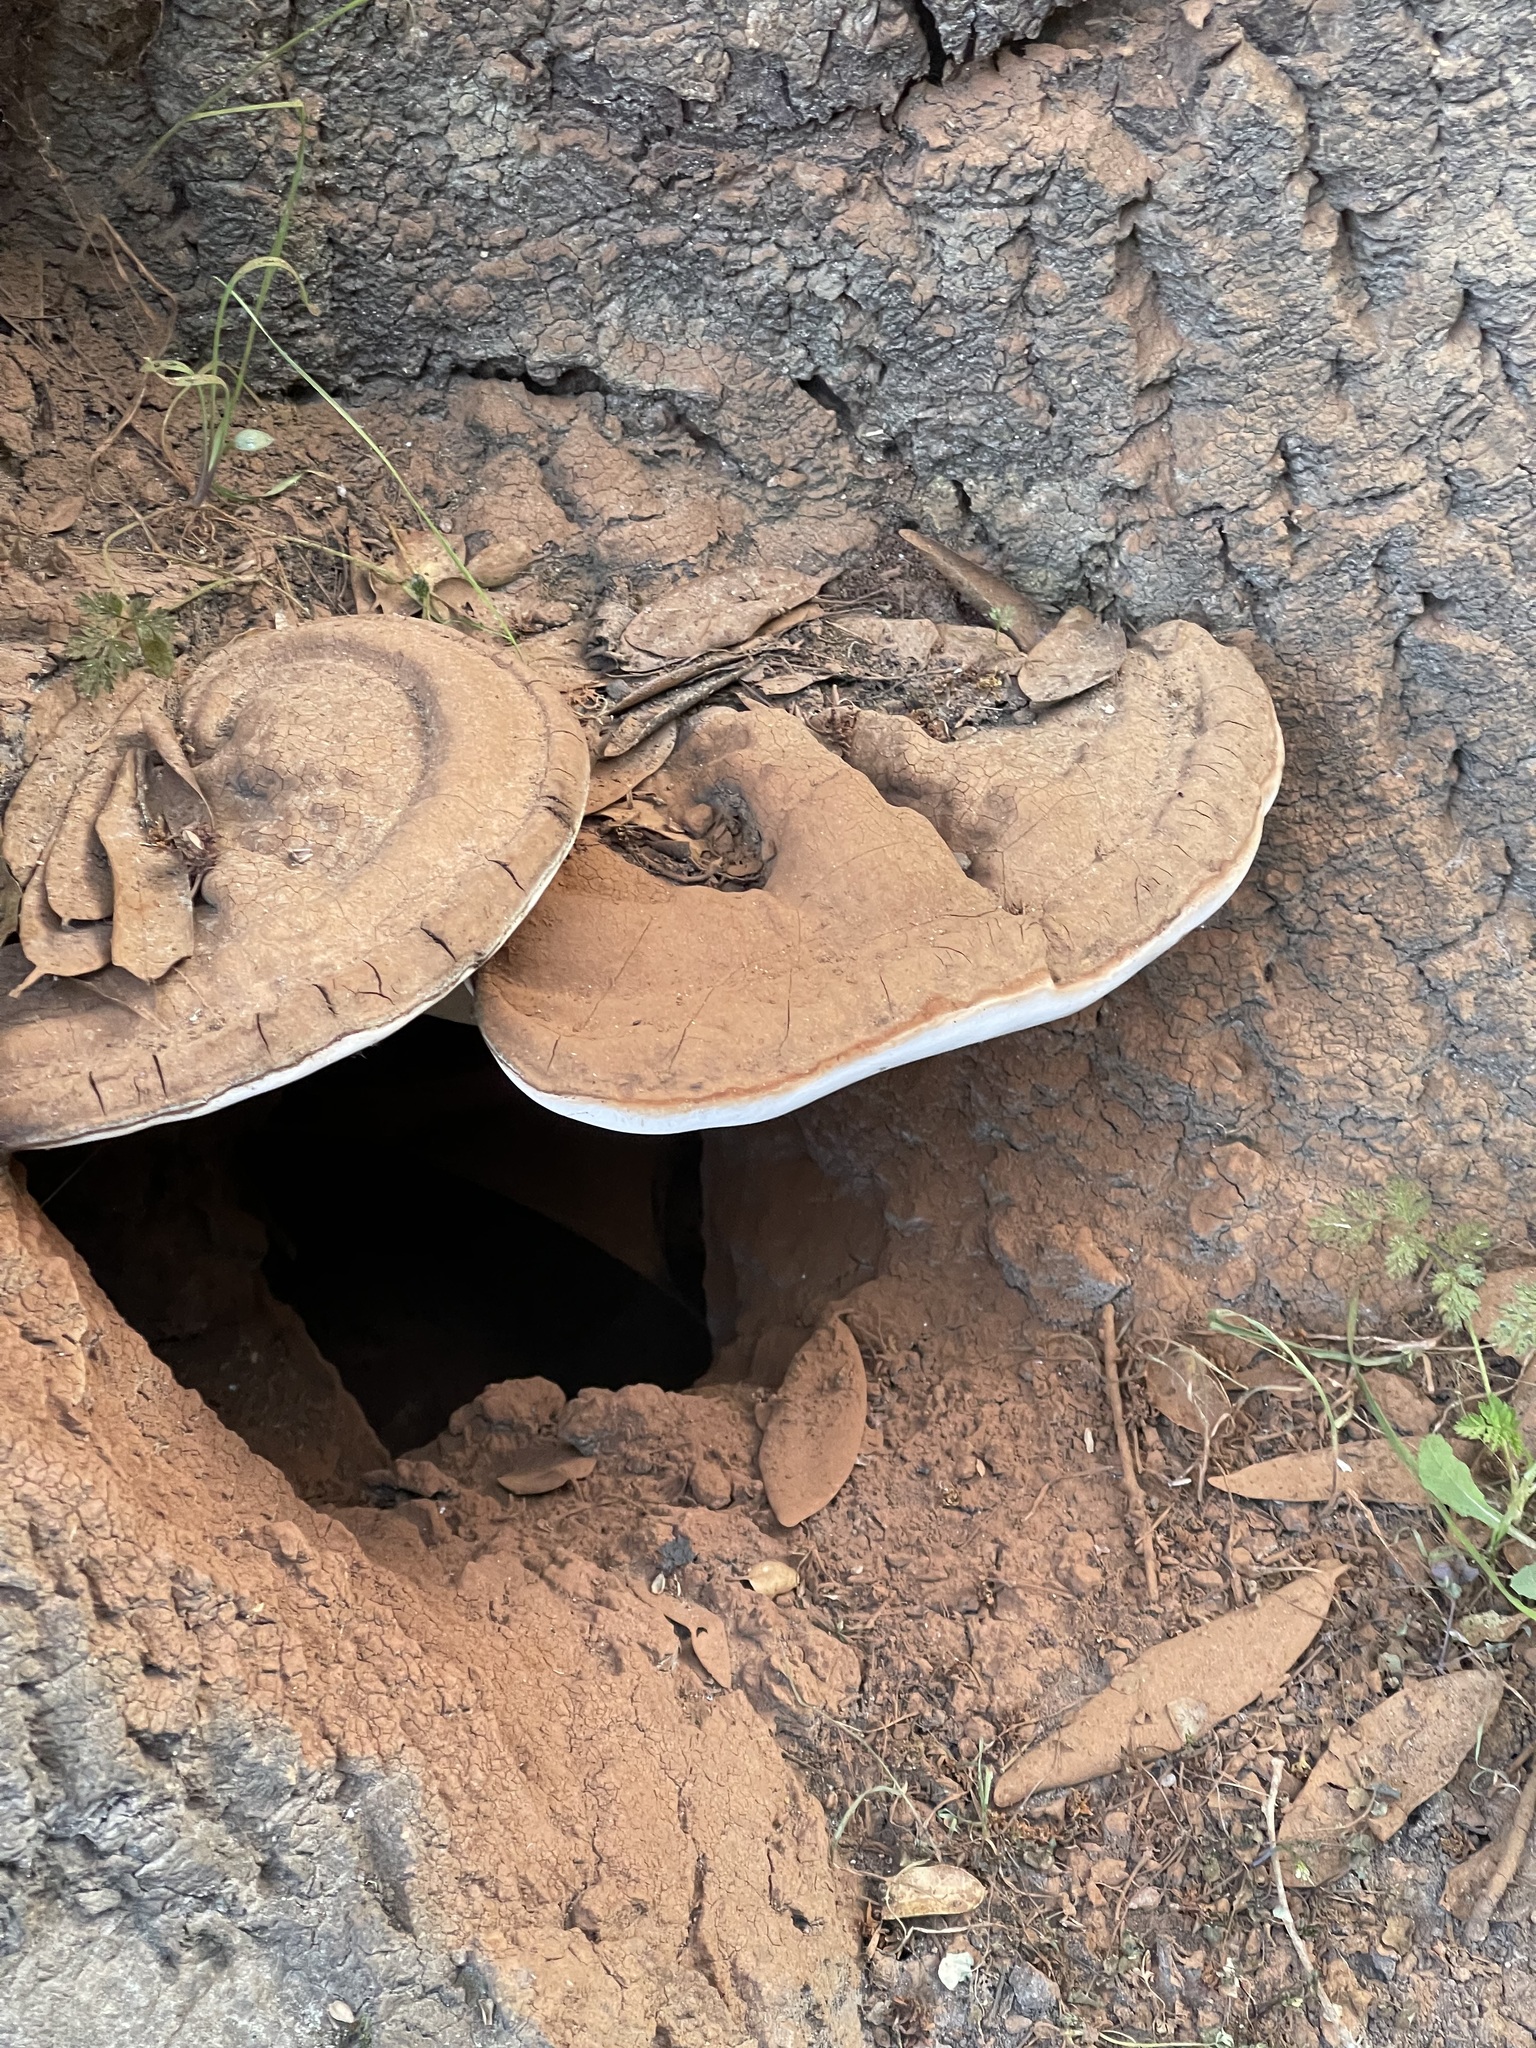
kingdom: Fungi
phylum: Basidiomycota
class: Agaricomycetes
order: Polyporales
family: Polyporaceae
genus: Ganoderma
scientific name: Ganoderma brownii
